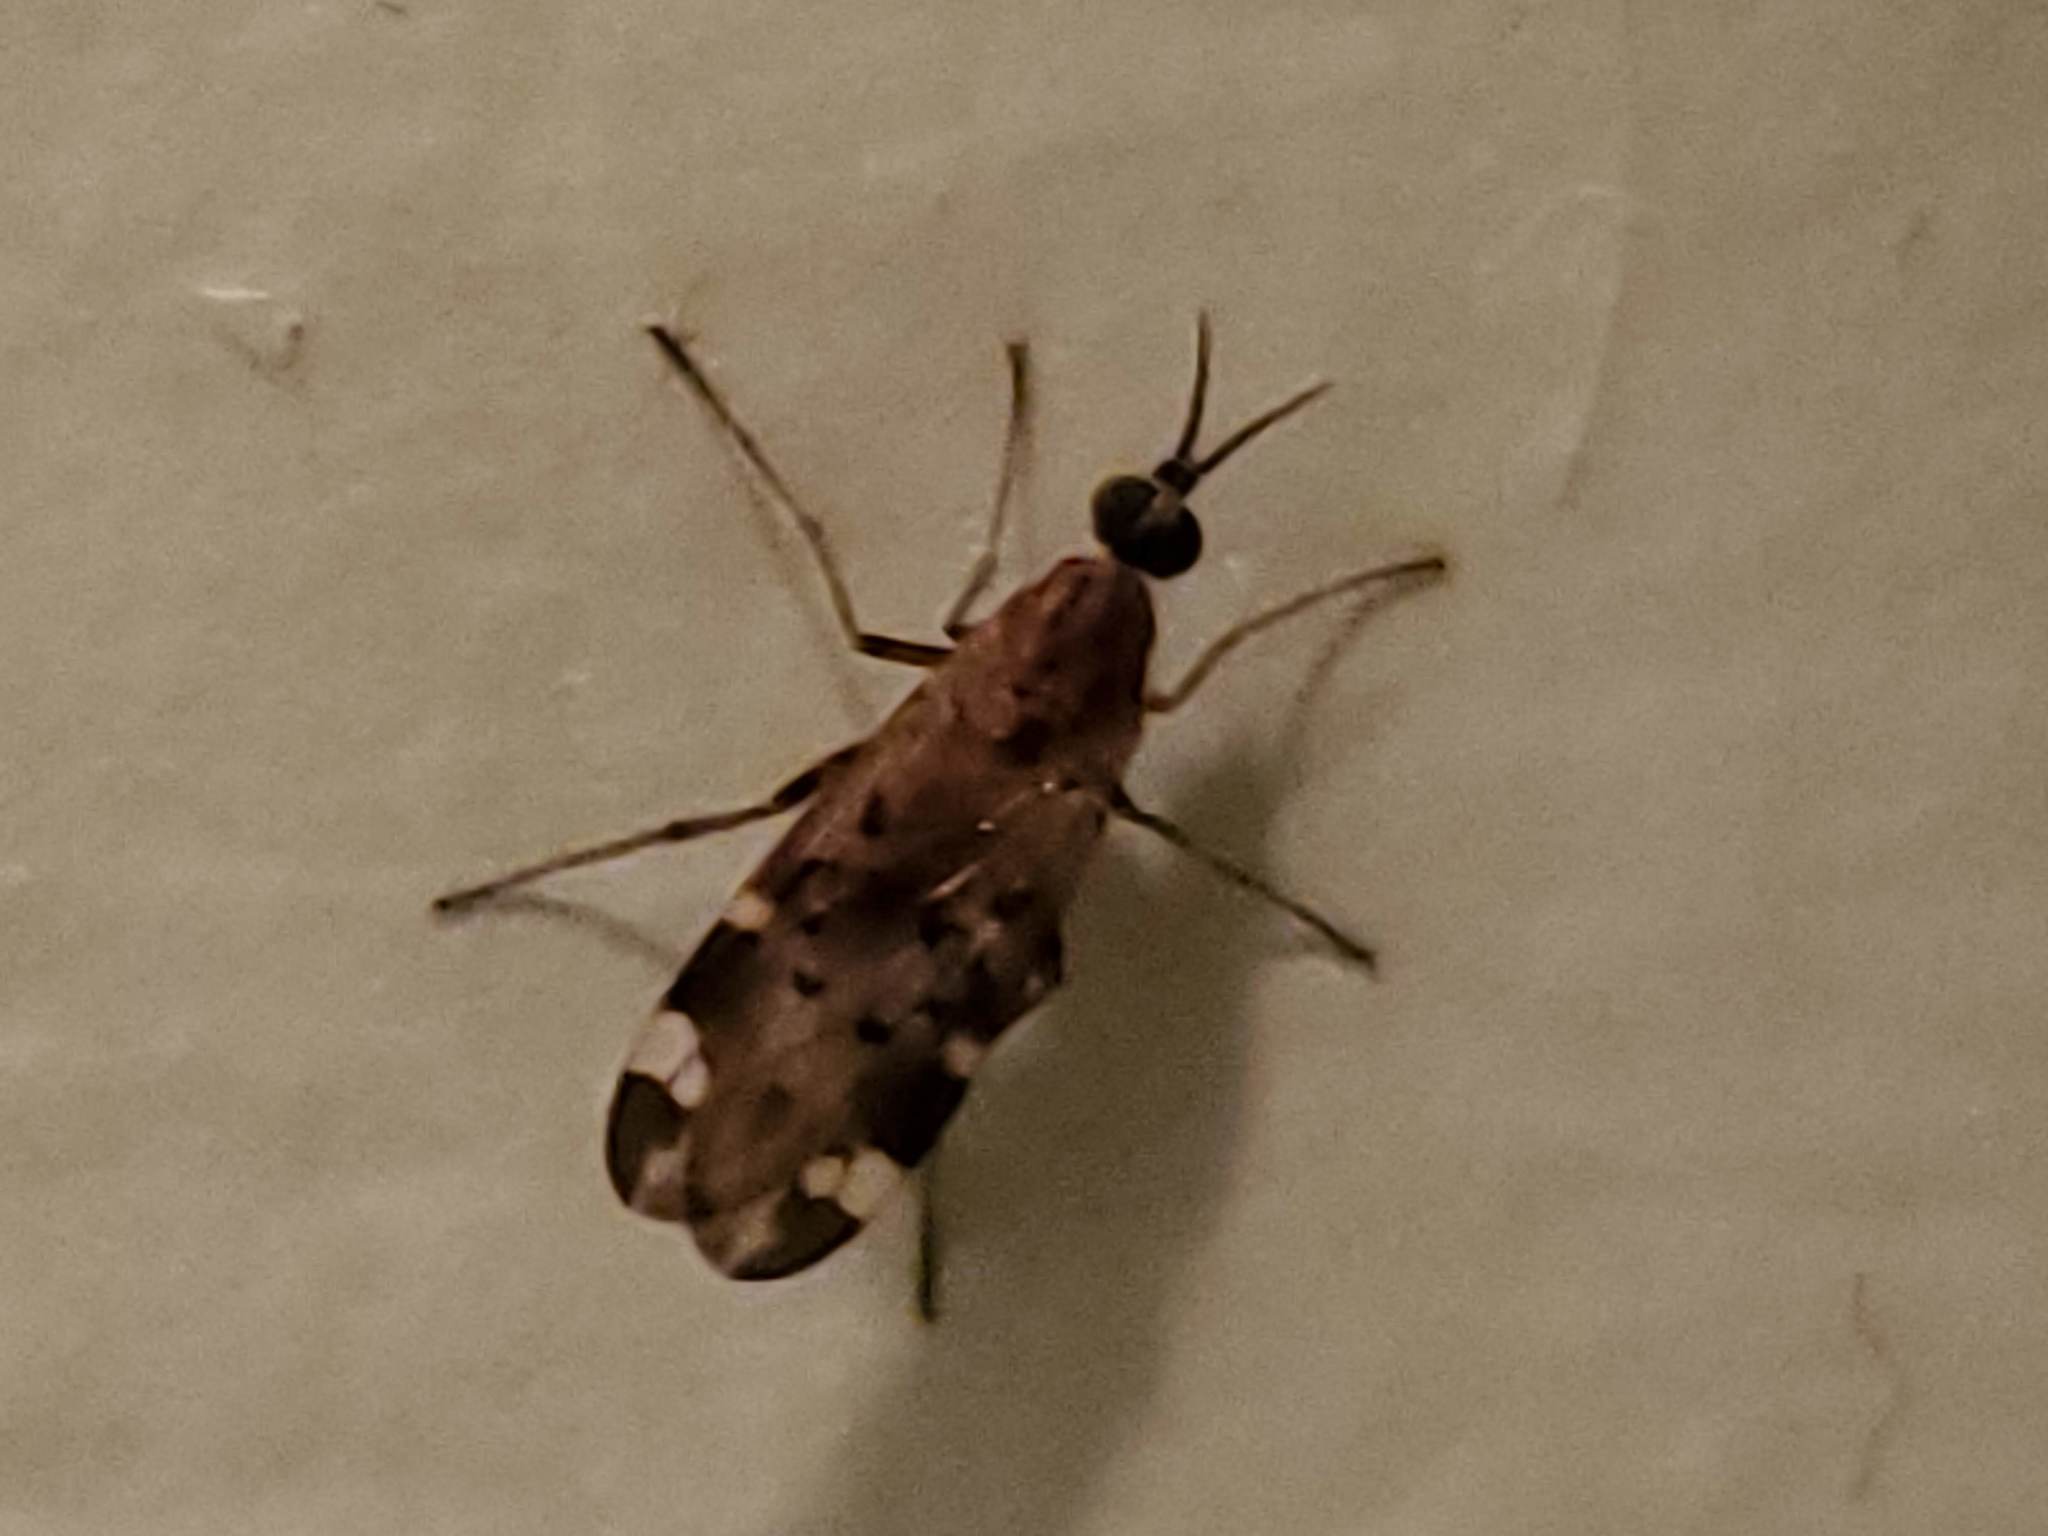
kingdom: Animalia
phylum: Arthropoda
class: Insecta
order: Diptera
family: Anisopodidae
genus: Sylvicola
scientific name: Sylvicola alternata
